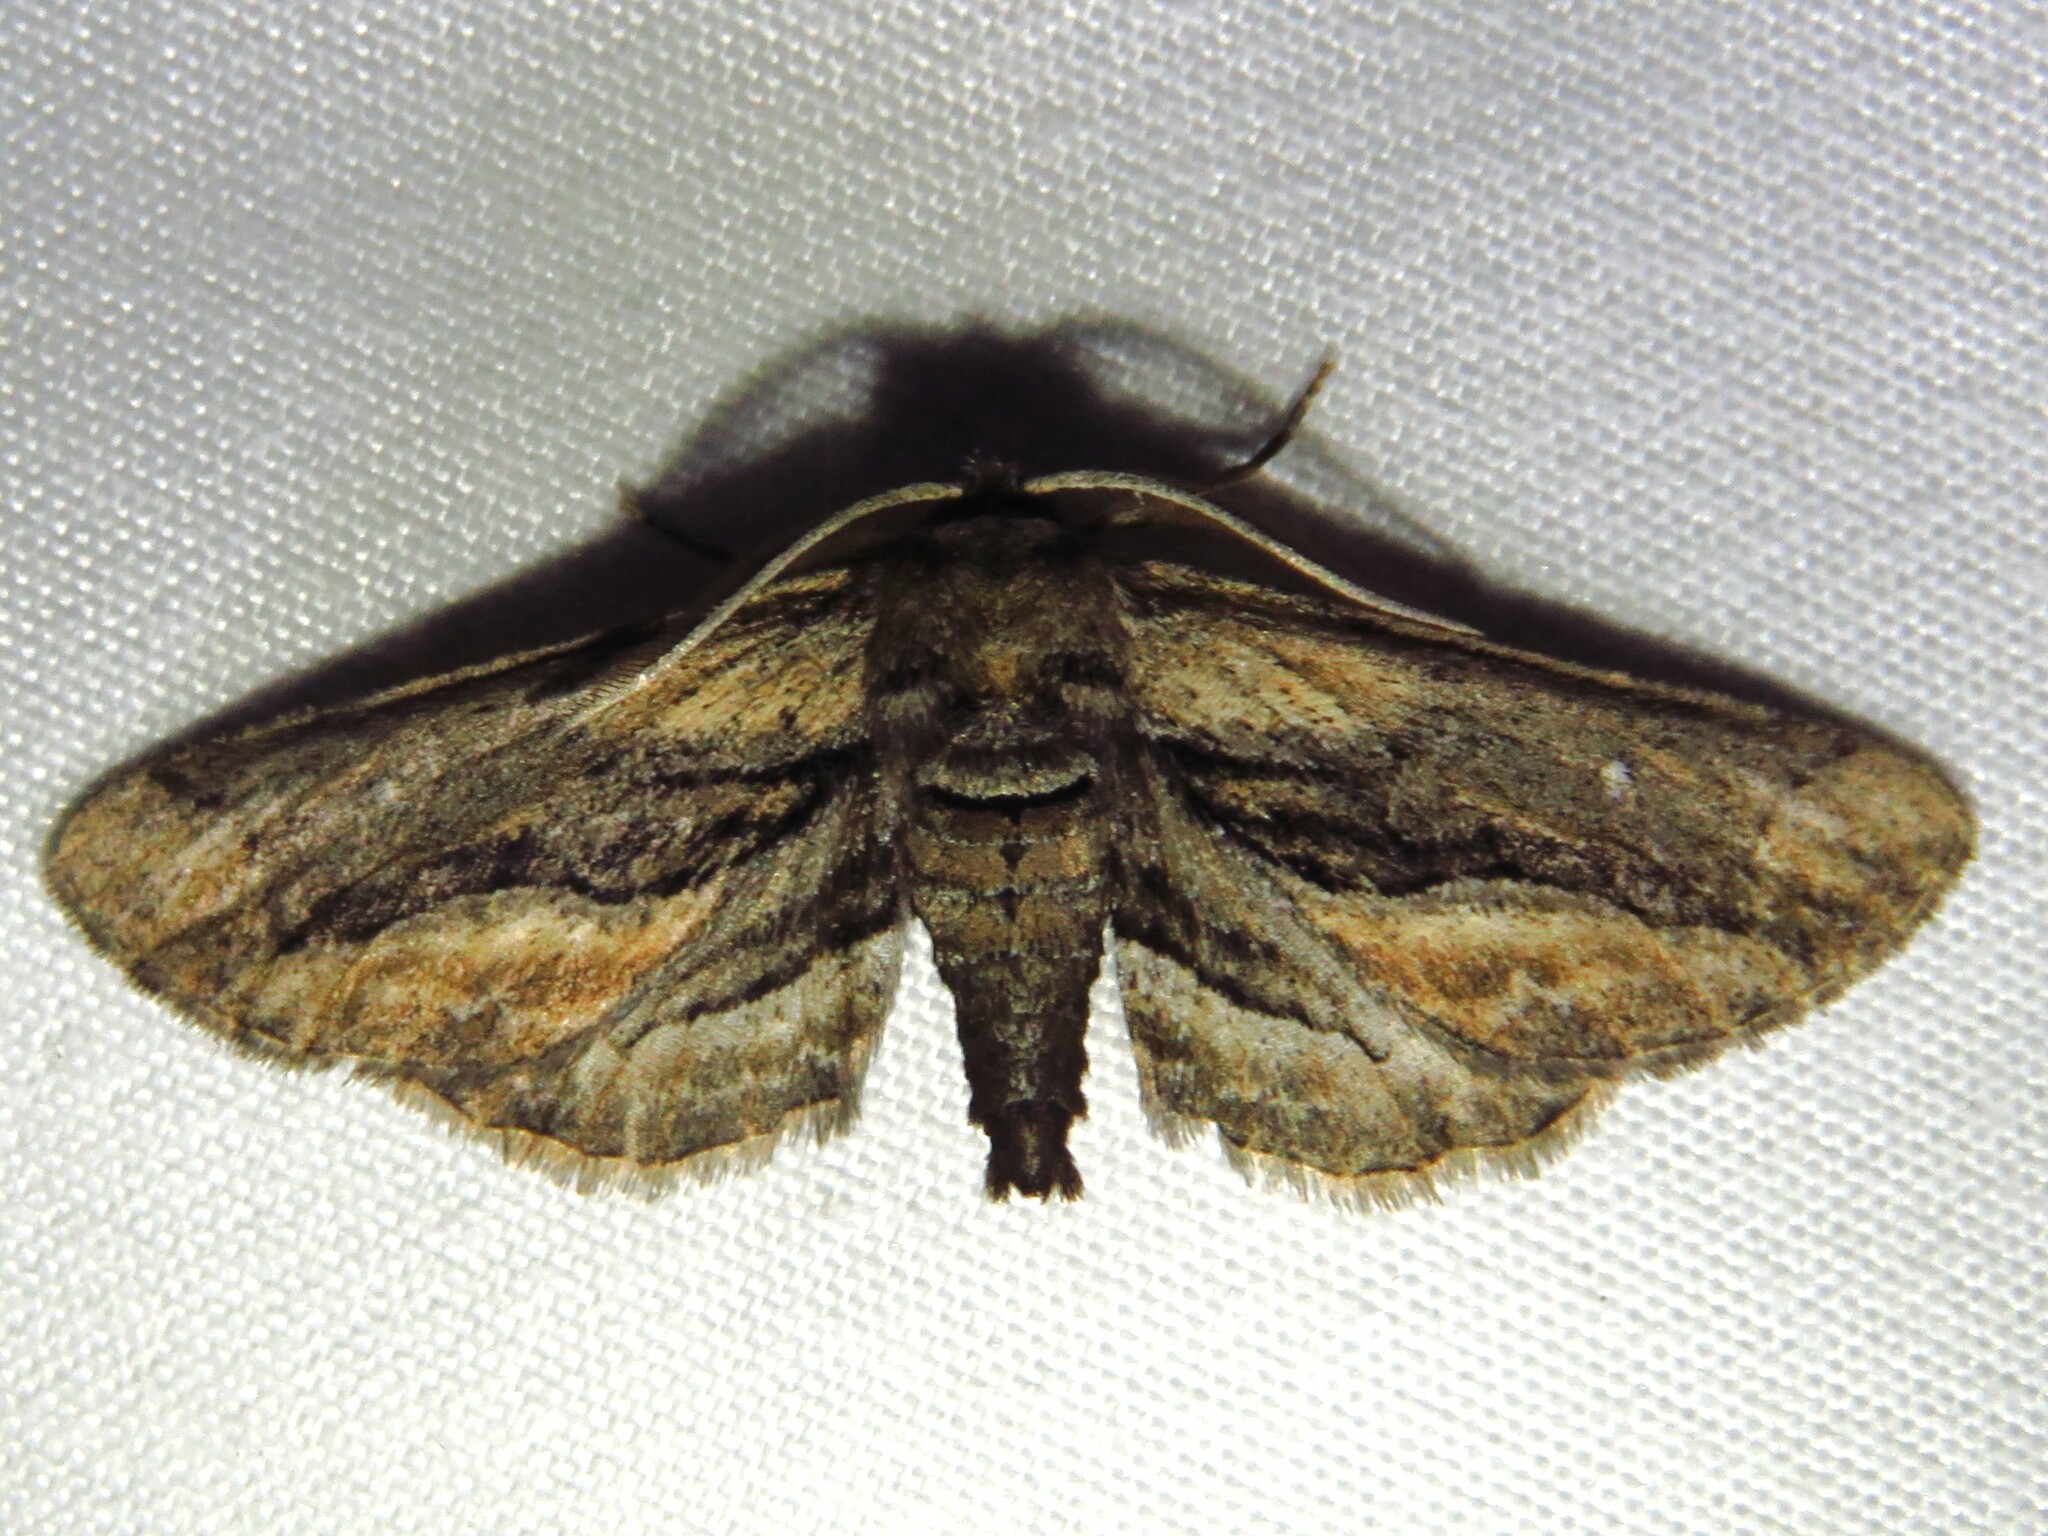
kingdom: Animalia
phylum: Arthropoda
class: Insecta
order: Lepidoptera
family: Geometridae
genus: Holochroa
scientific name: Holochroa dissociarius
